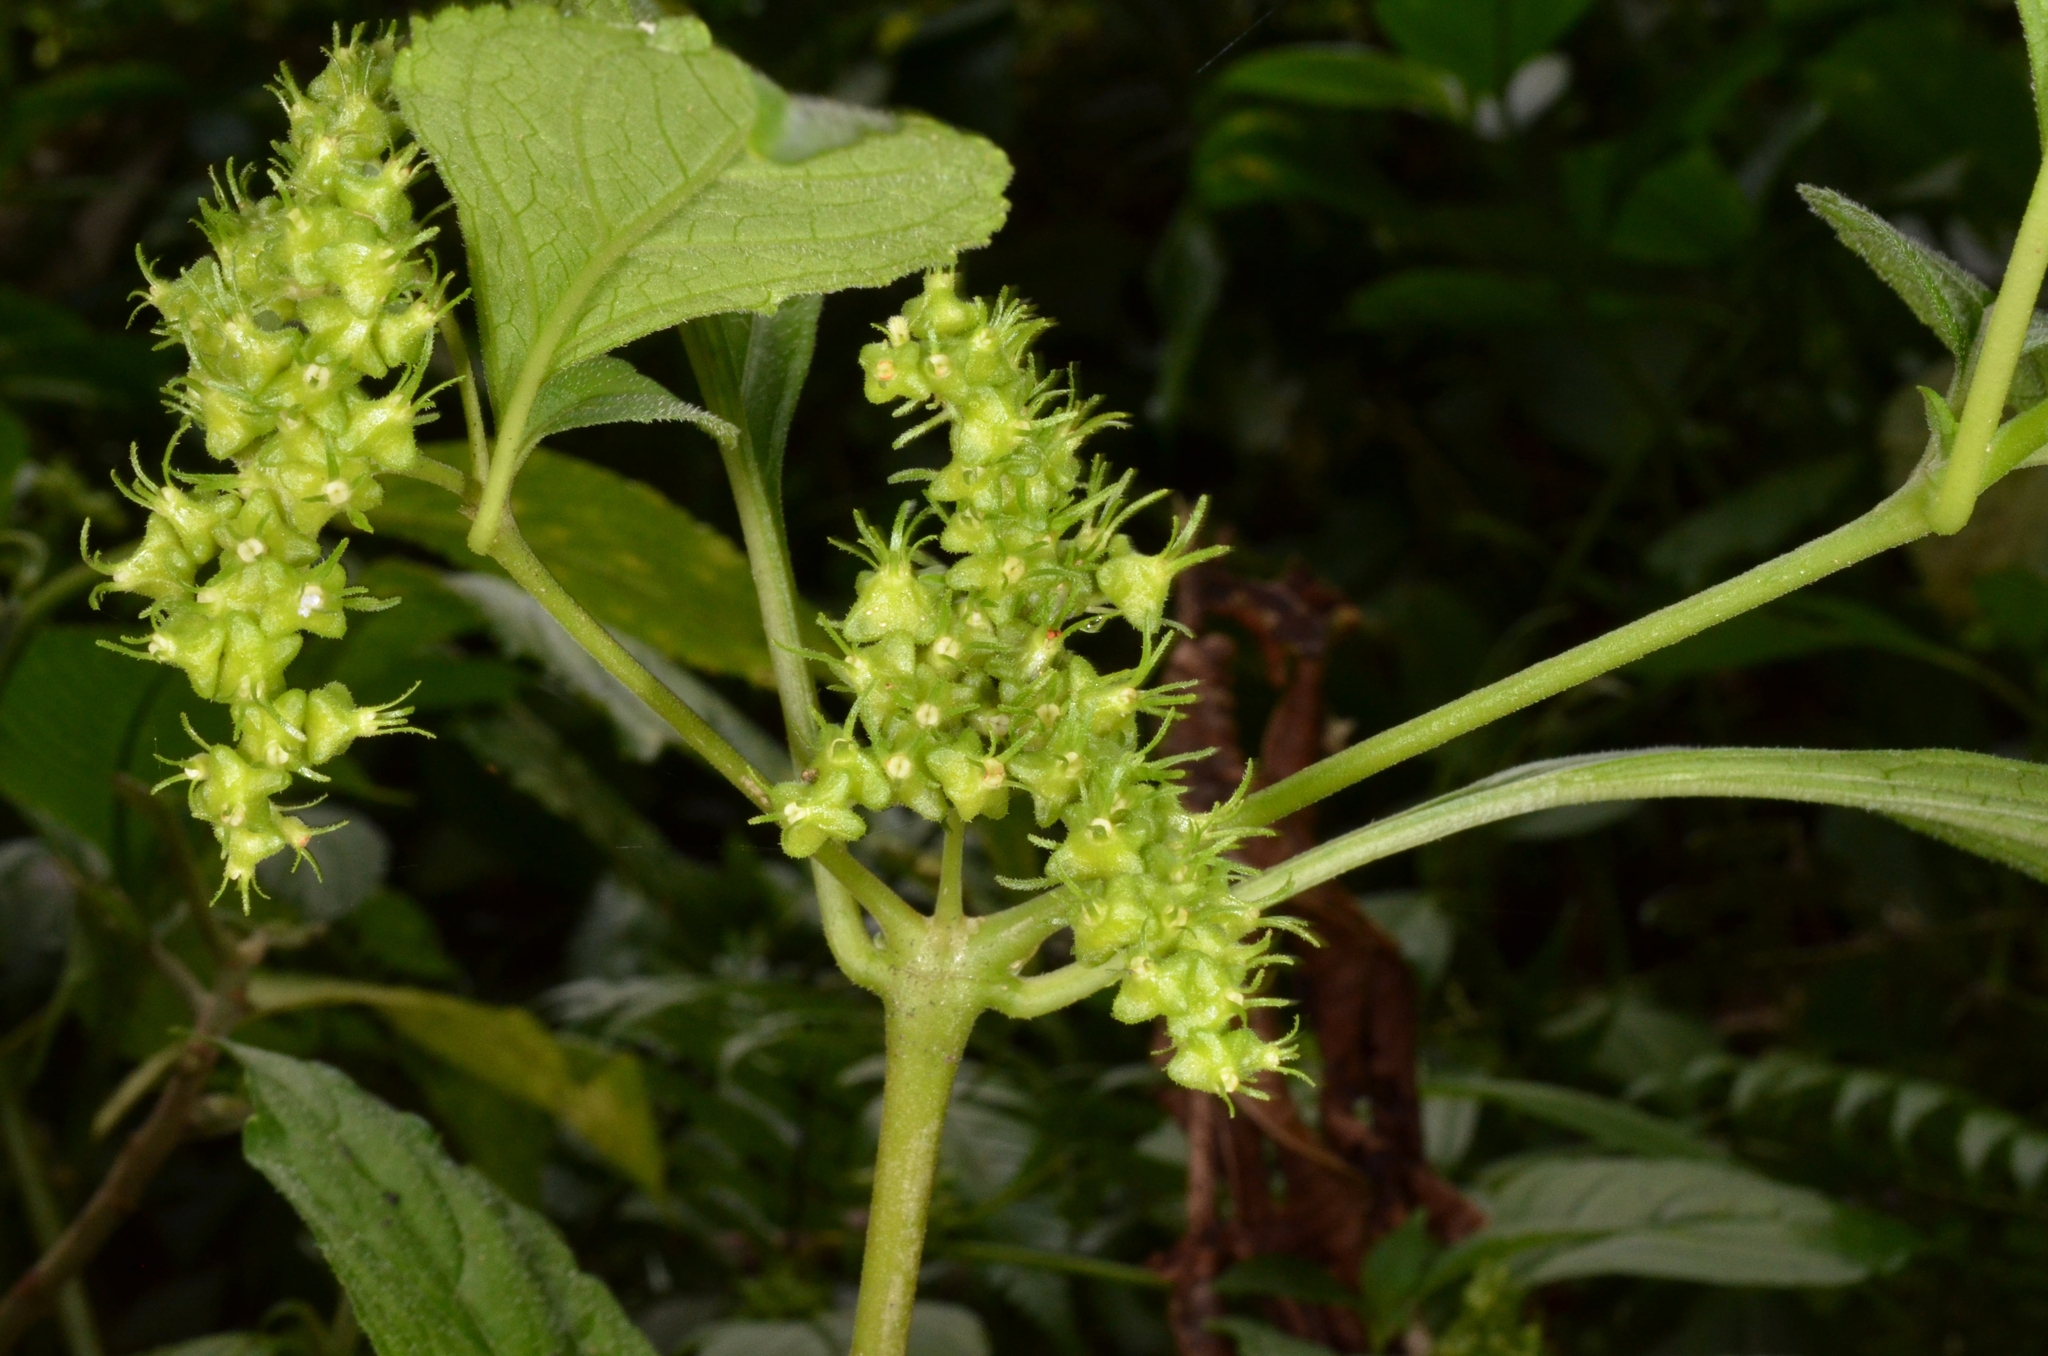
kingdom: Plantae
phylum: Tracheophyta
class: Magnoliopsida
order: Lamiales
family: Carlemanniaceae
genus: Carlemannia
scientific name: Carlemannia tetragona
